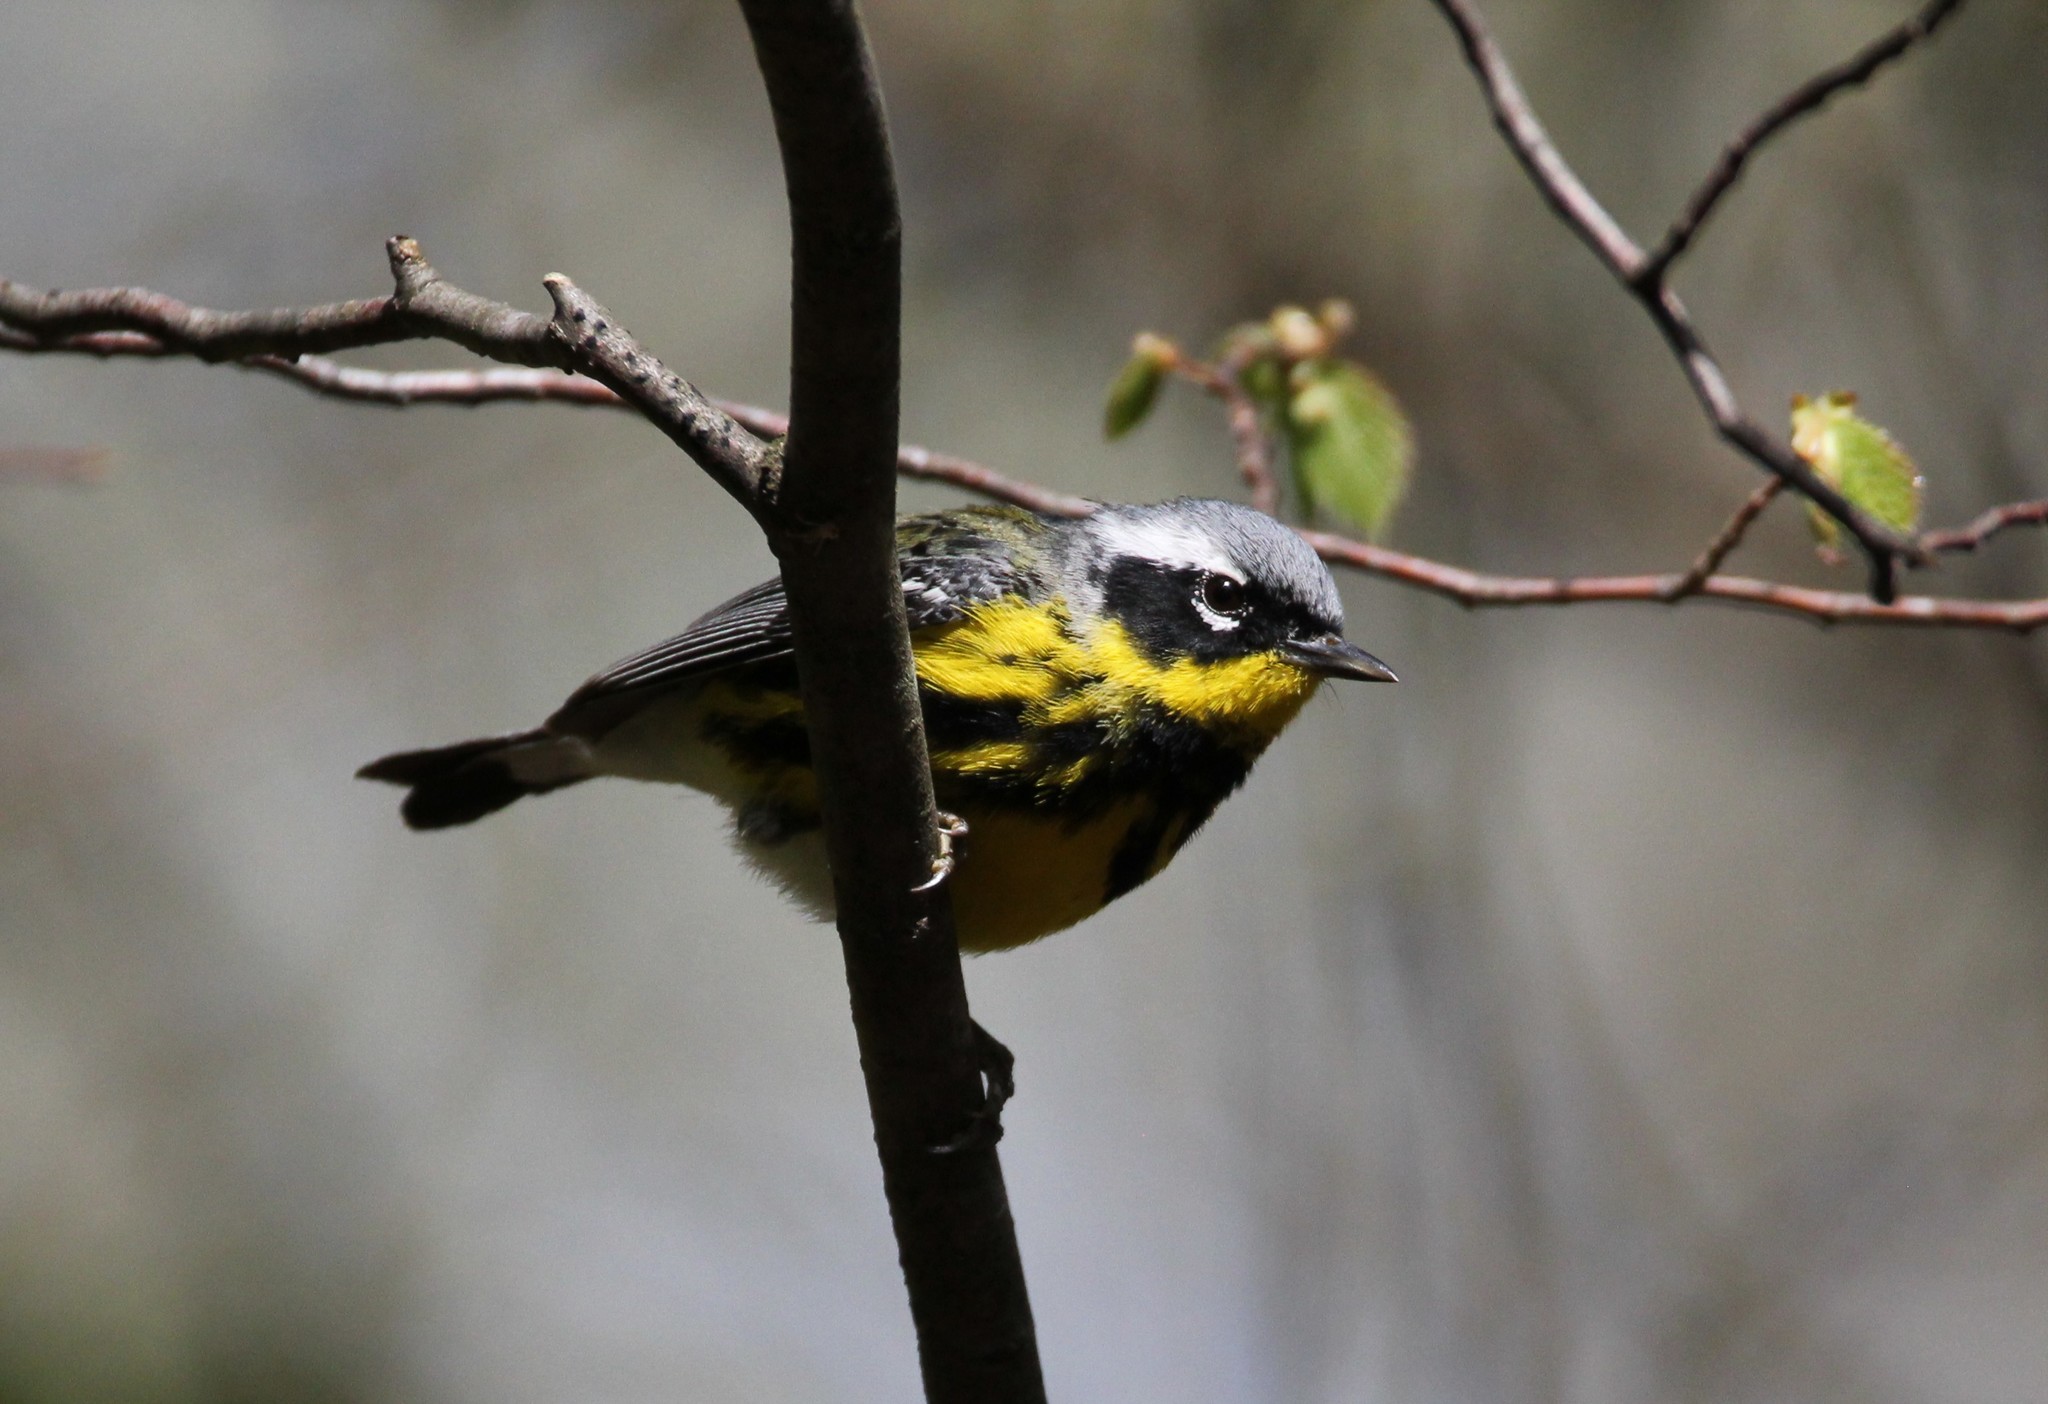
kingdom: Animalia
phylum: Chordata
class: Aves
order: Passeriformes
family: Parulidae
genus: Setophaga
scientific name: Setophaga magnolia
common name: Magnolia warbler
